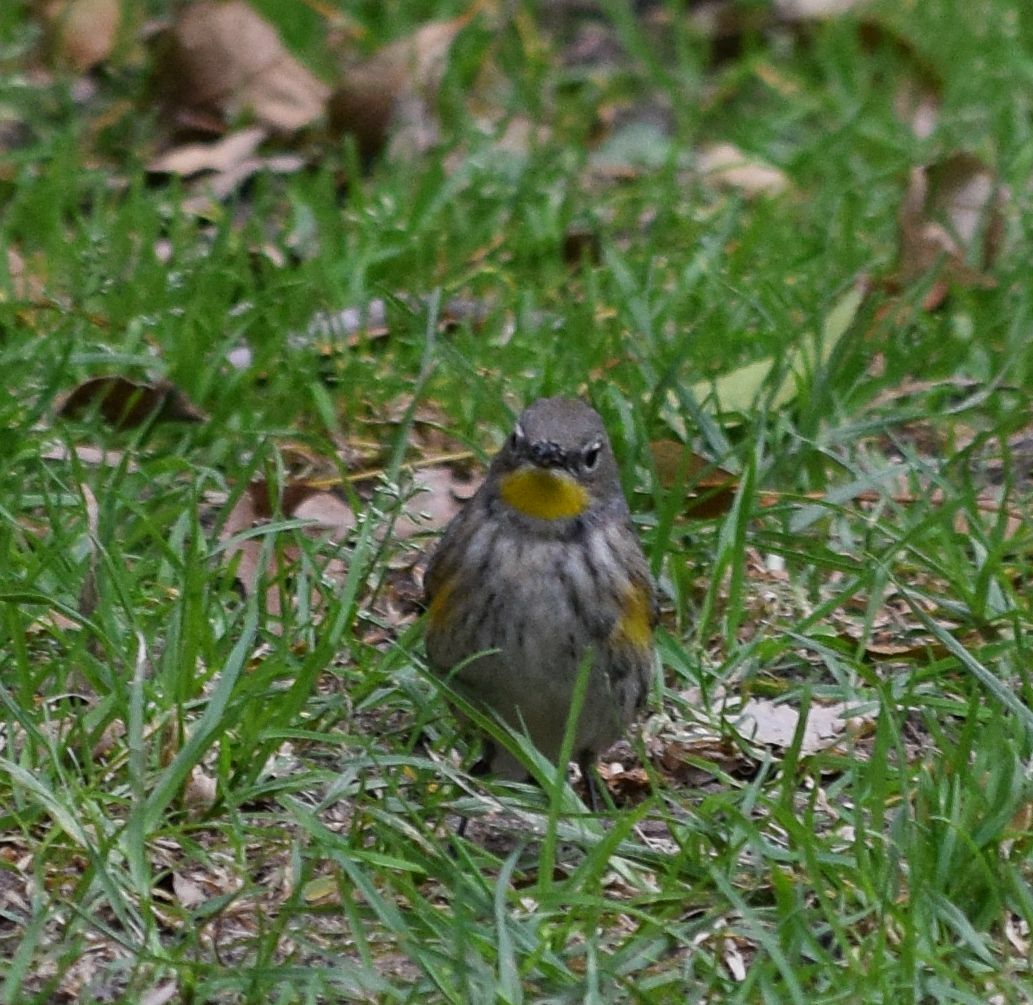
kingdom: Animalia
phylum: Chordata
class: Aves
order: Passeriformes
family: Parulidae
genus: Setophaga
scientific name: Setophaga coronata
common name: Myrtle warbler
